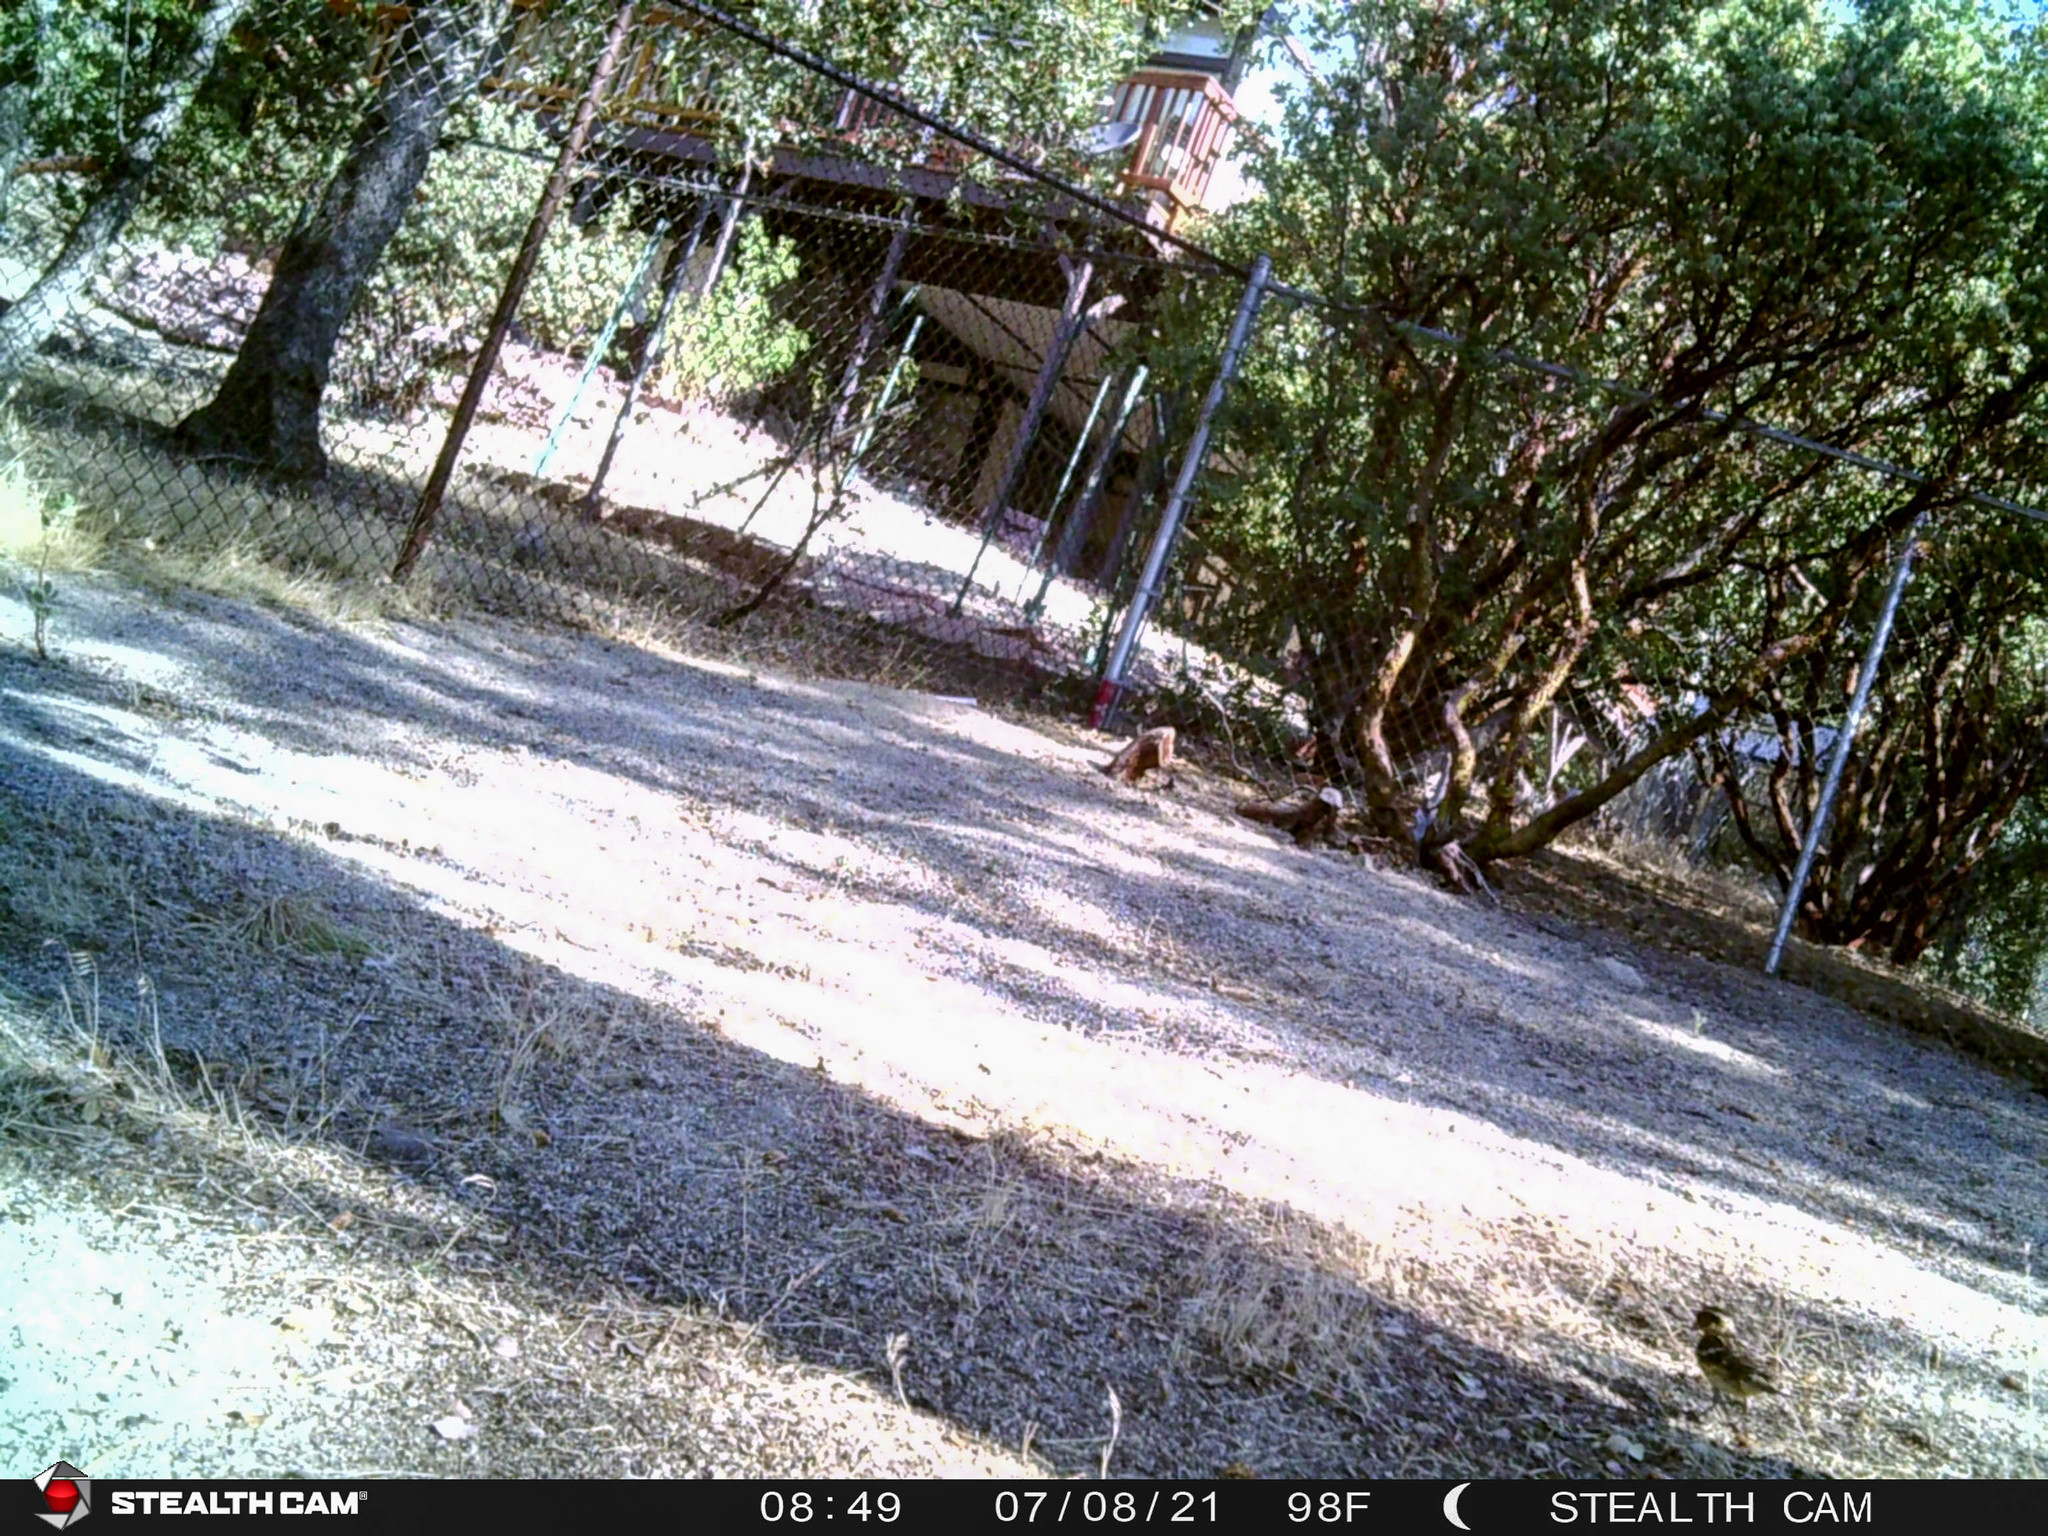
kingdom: Animalia
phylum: Chordata
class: Aves
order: Passeriformes
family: Cardinalidae
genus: Pheucticus
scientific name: Pheucticus melanocephalus
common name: Black-headed grosbeak
